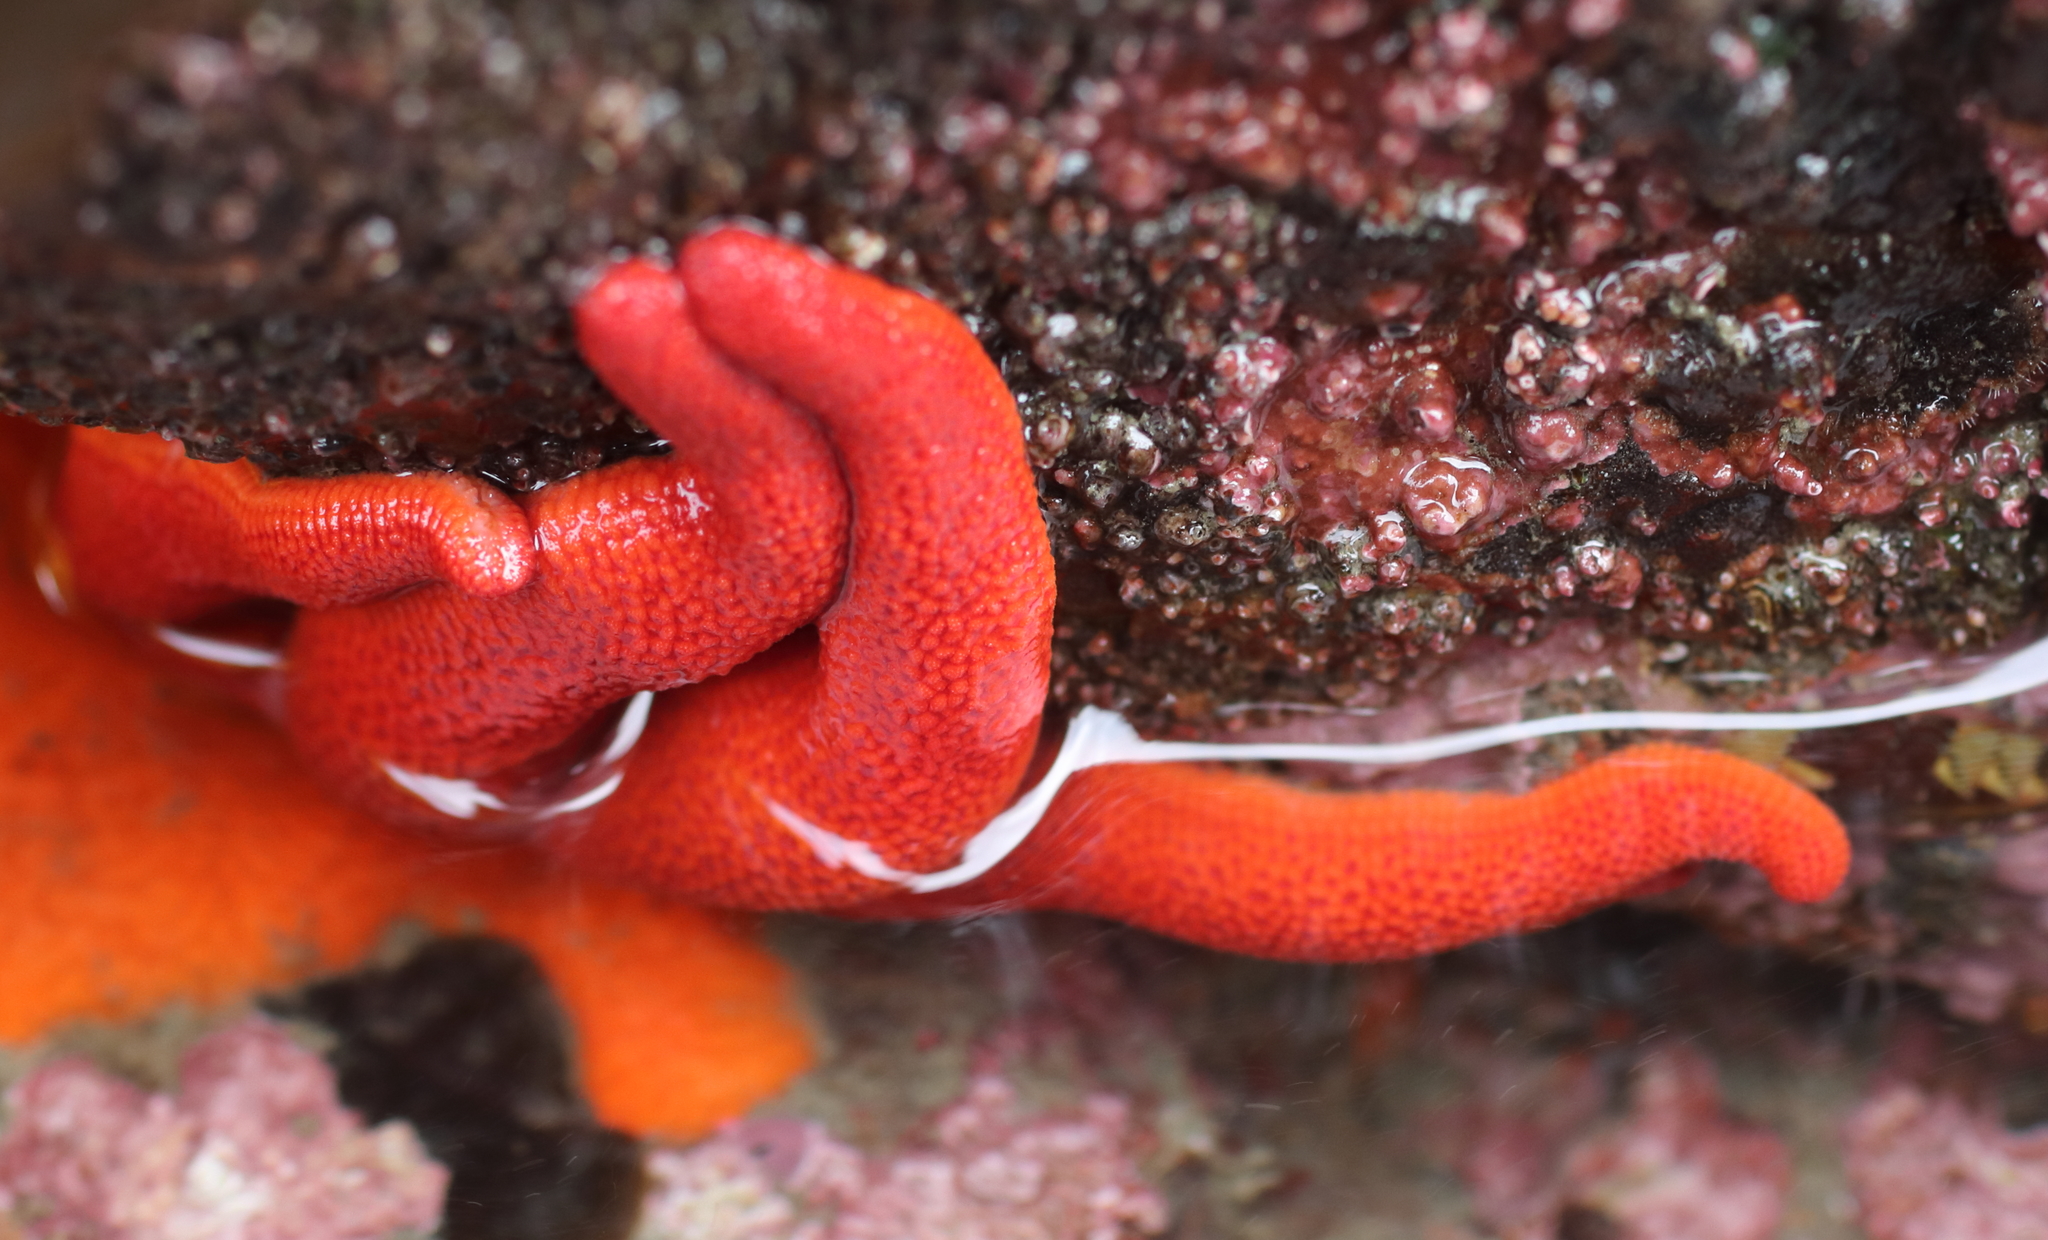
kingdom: Animalia
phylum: Echinodermata
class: Asteroidea
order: Spinulosida
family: Echinasteridae
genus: Henricia
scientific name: Henricia
